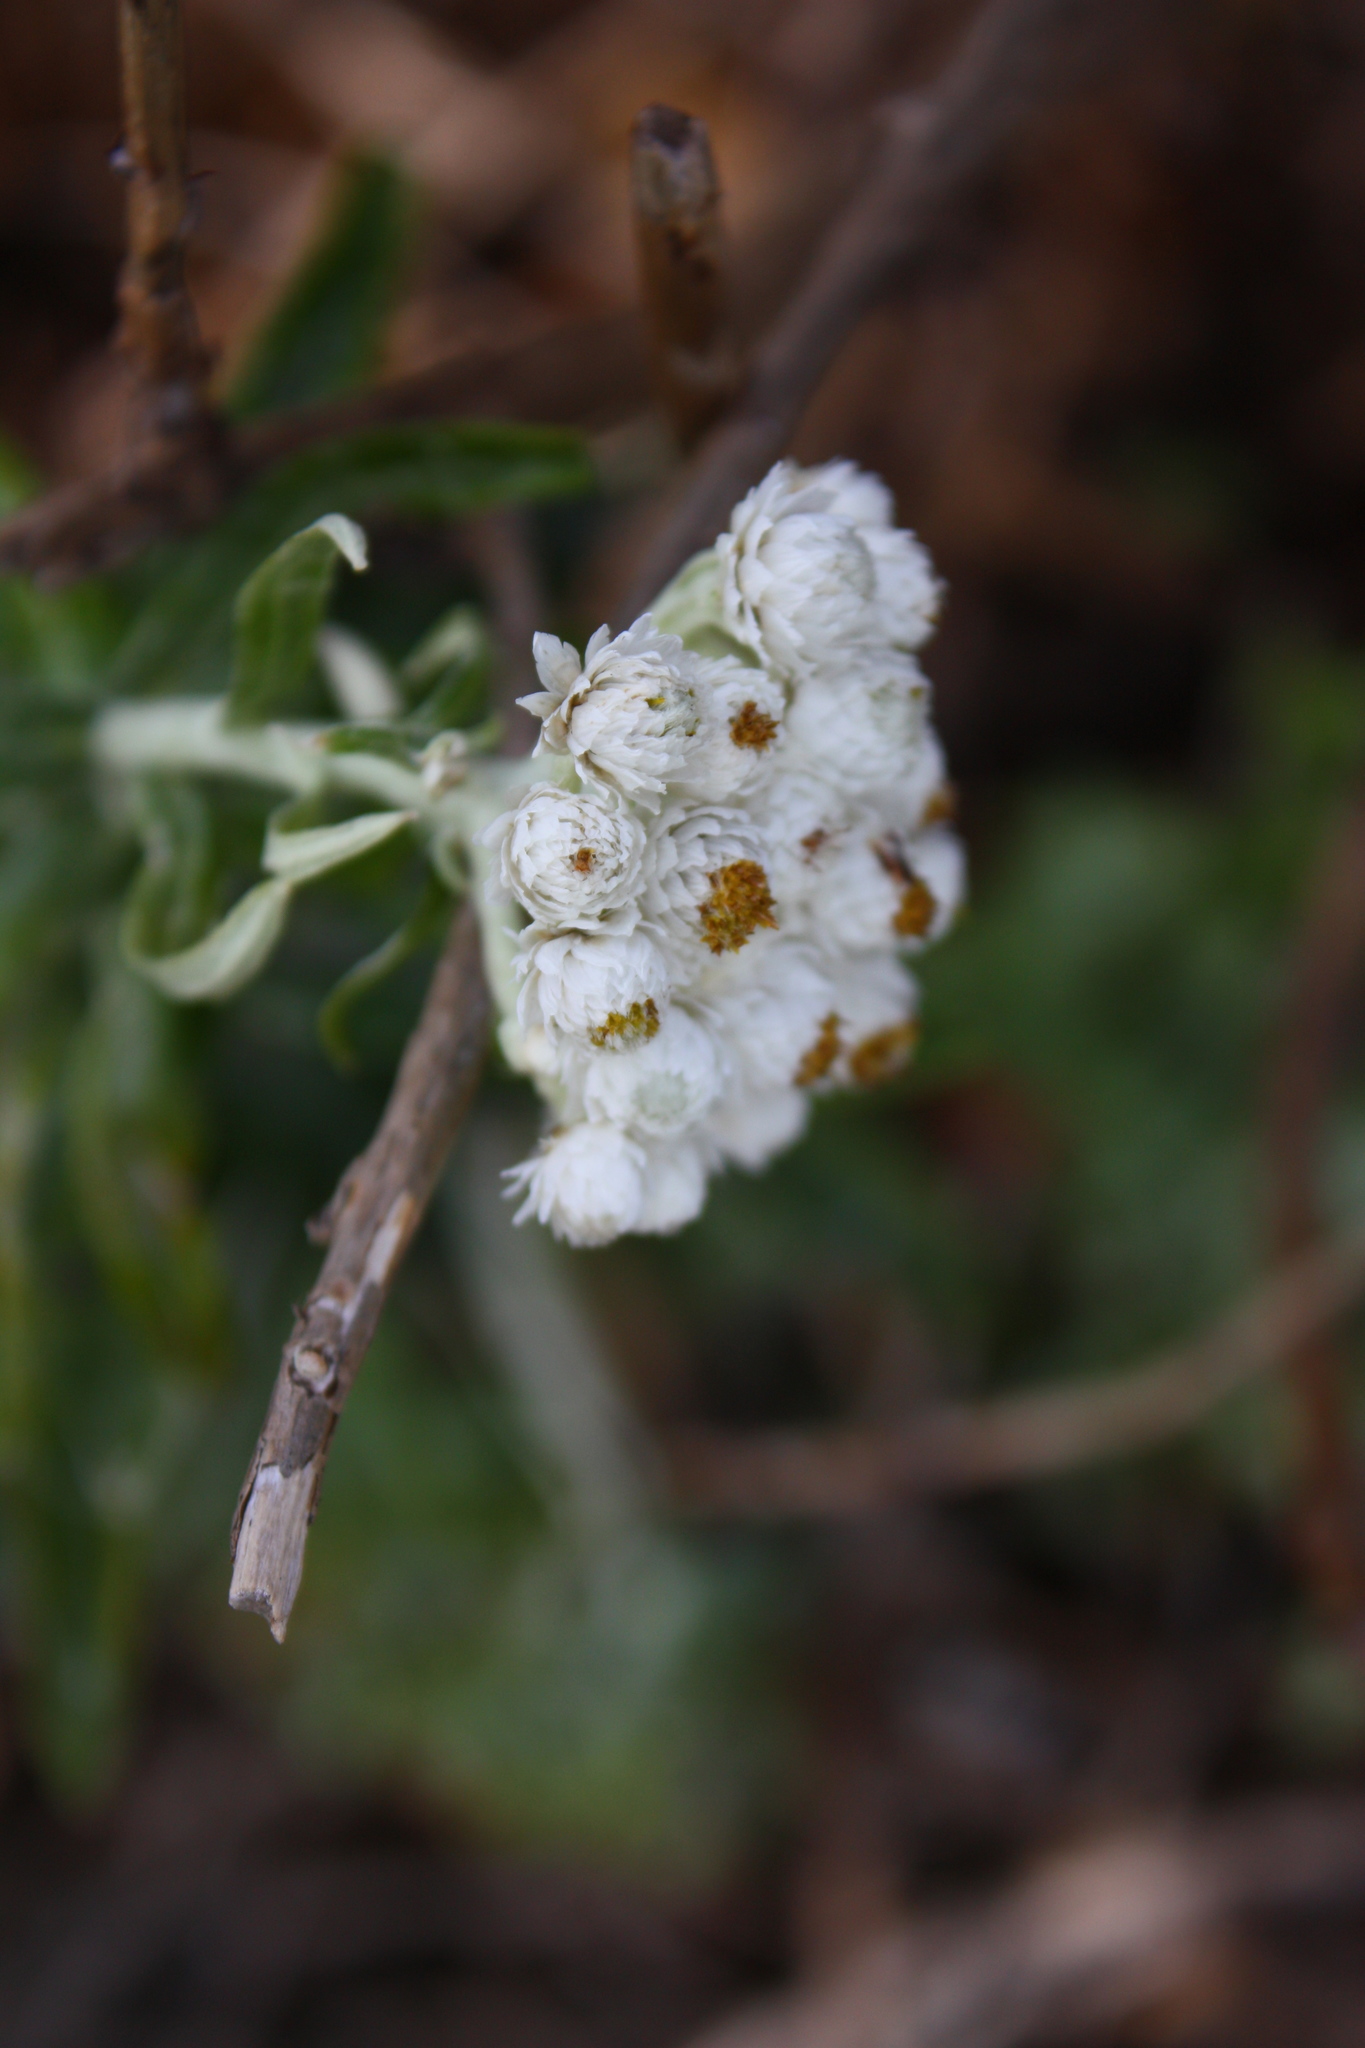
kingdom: Plantae
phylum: Tracheophyta
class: Magnoliopsida
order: Asterales
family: Asteraceae
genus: Anaphalis
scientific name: Anaphalis margaritacea
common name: Pearly everlasting
